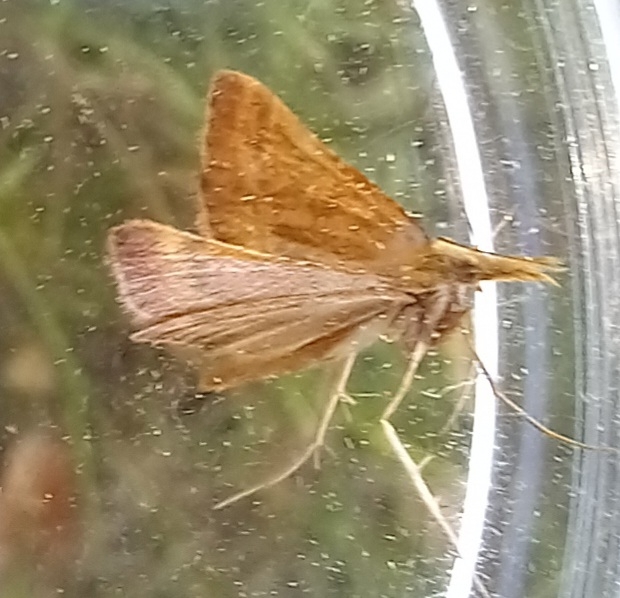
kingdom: Animalia
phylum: Arthropoda
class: Insecta
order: Lepidoptera
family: Pyralidae
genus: Synaphe
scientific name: Synaphe punctalis
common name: Long-legged tabby
